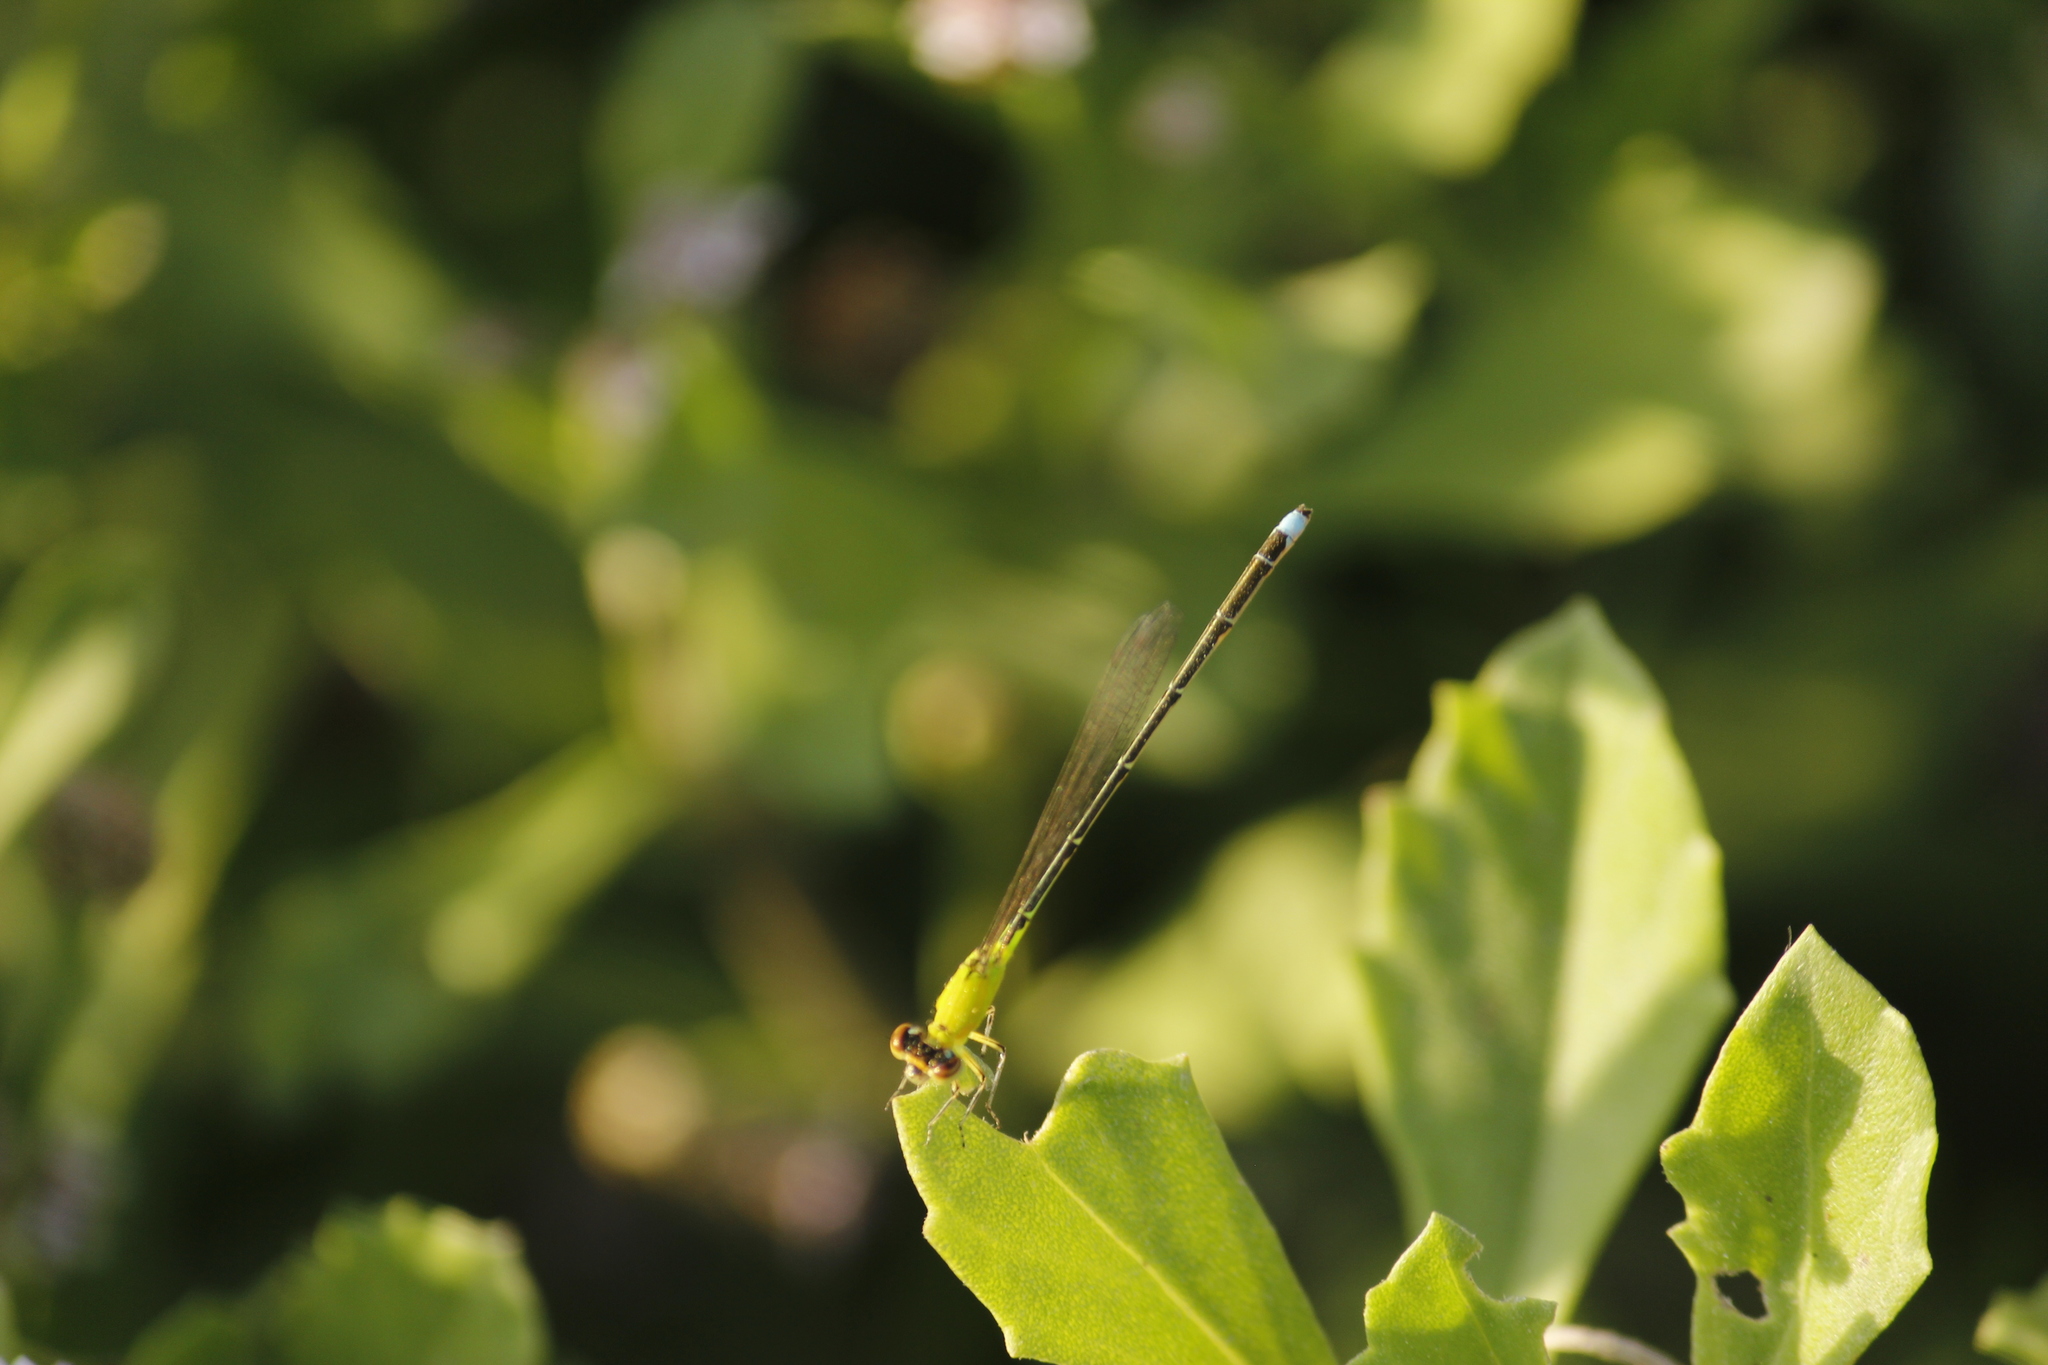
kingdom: Animalia
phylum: Arthropoda
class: Insecta
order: Odonata
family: Coenagrionidae
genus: Ischnura
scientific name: Ischnura capreolus
